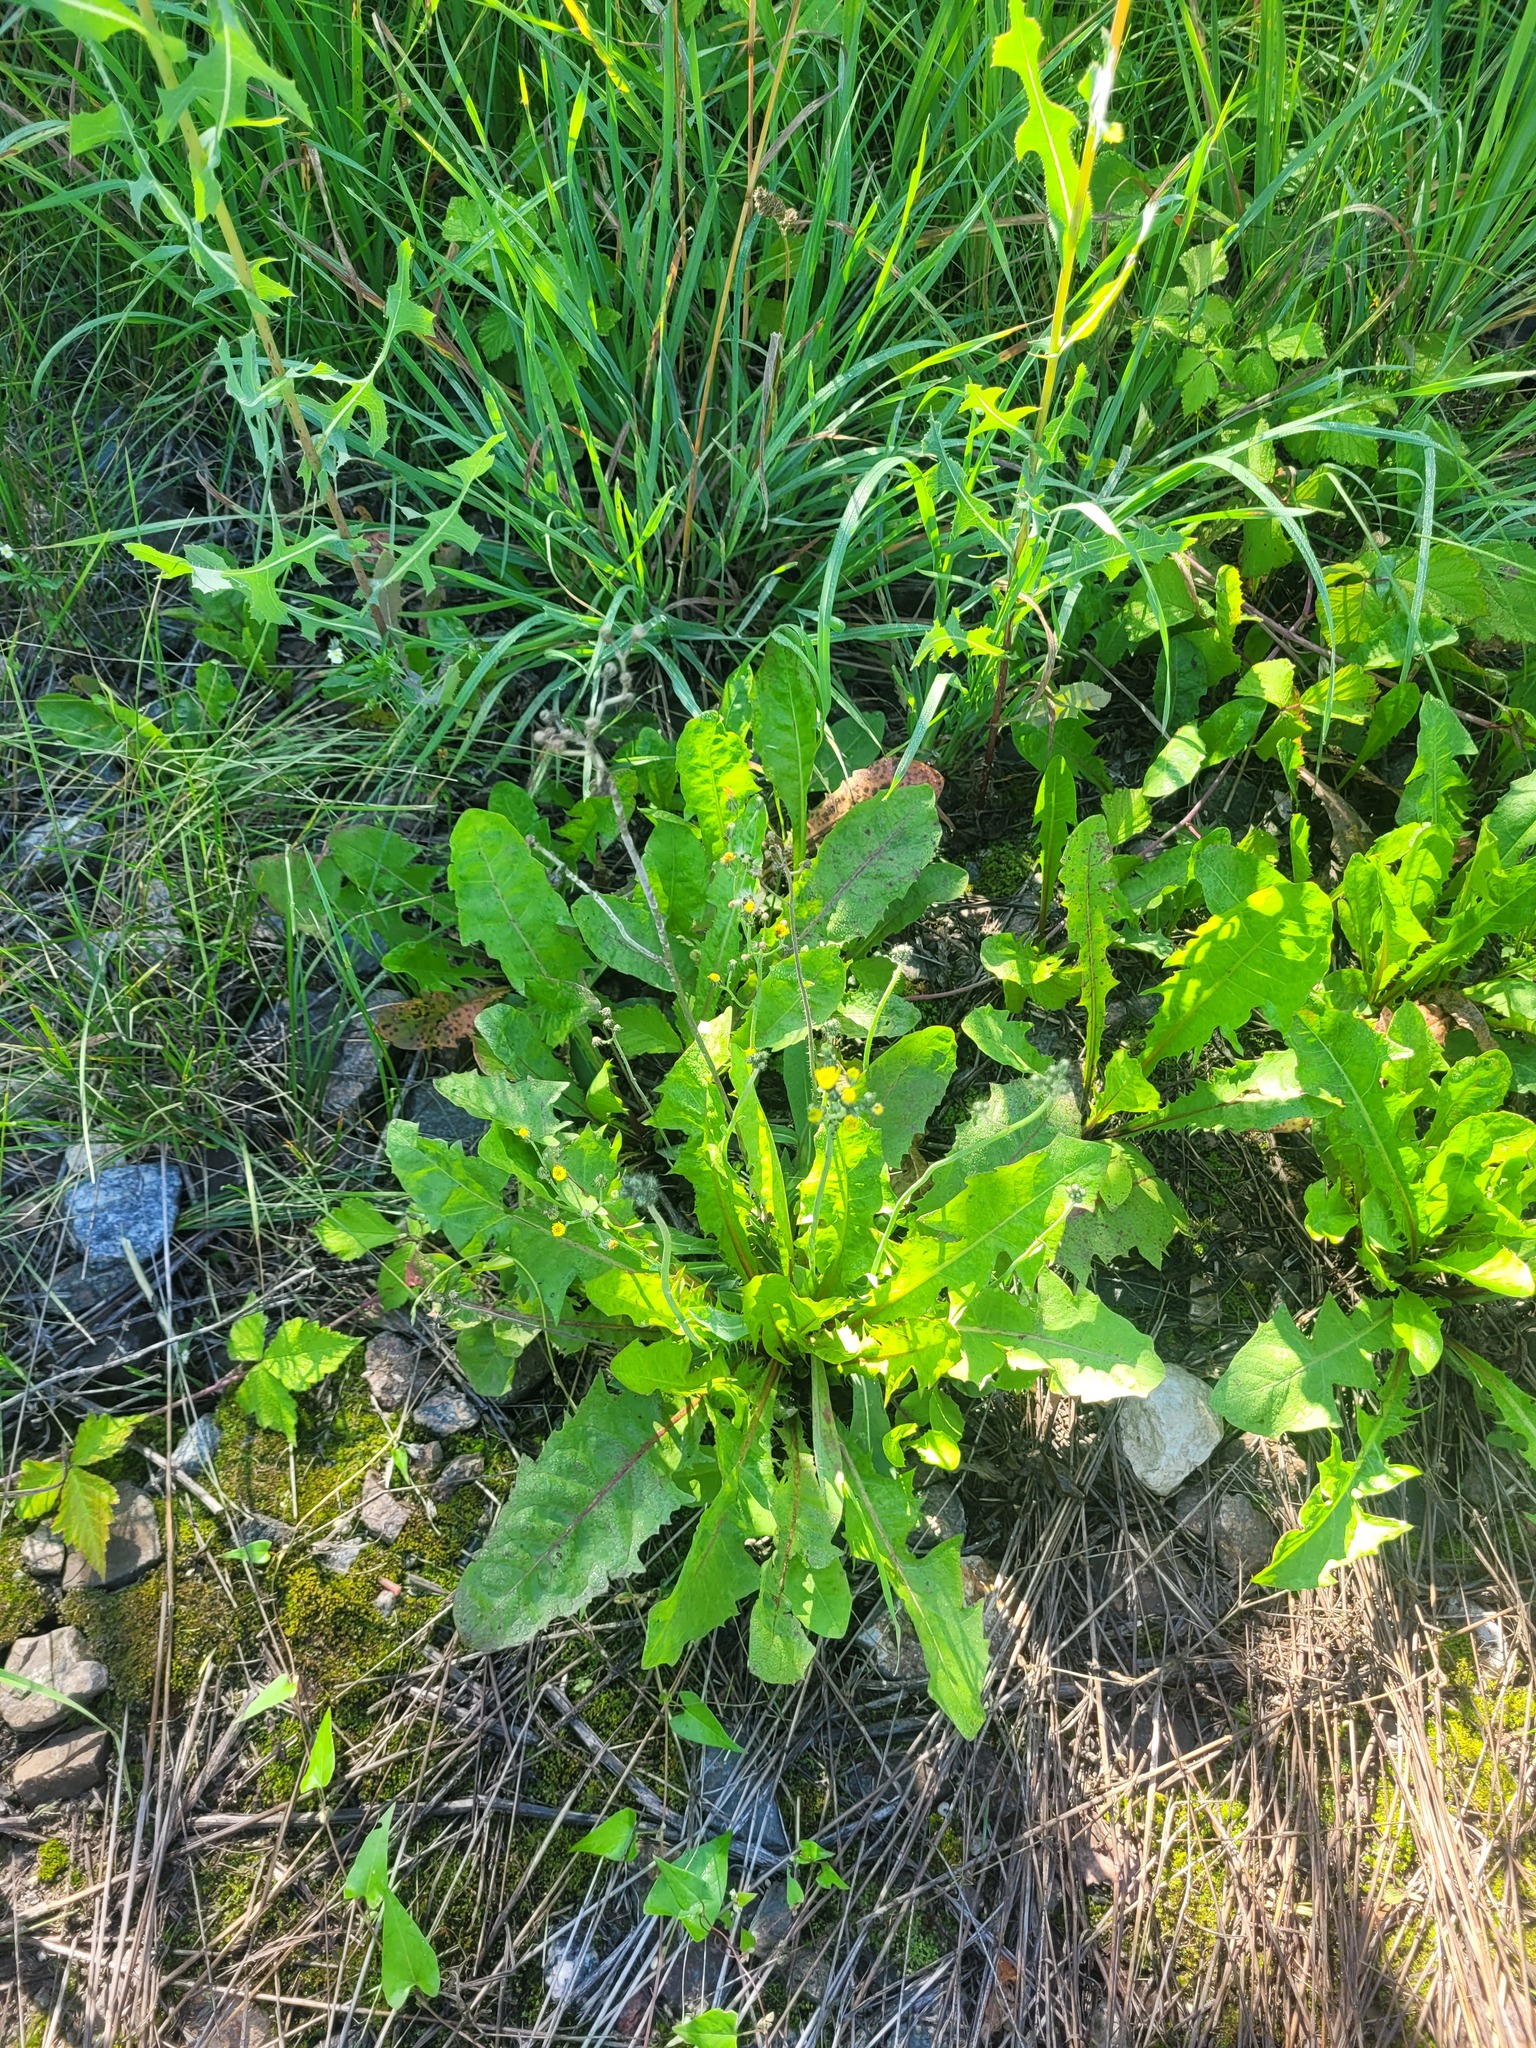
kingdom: Plantae
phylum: Tracheophyta
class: Magnoliopsida
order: Asterales
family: Asteraceae
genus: Taraxacum
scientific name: Taraxacum officinale
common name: Common dandelion
